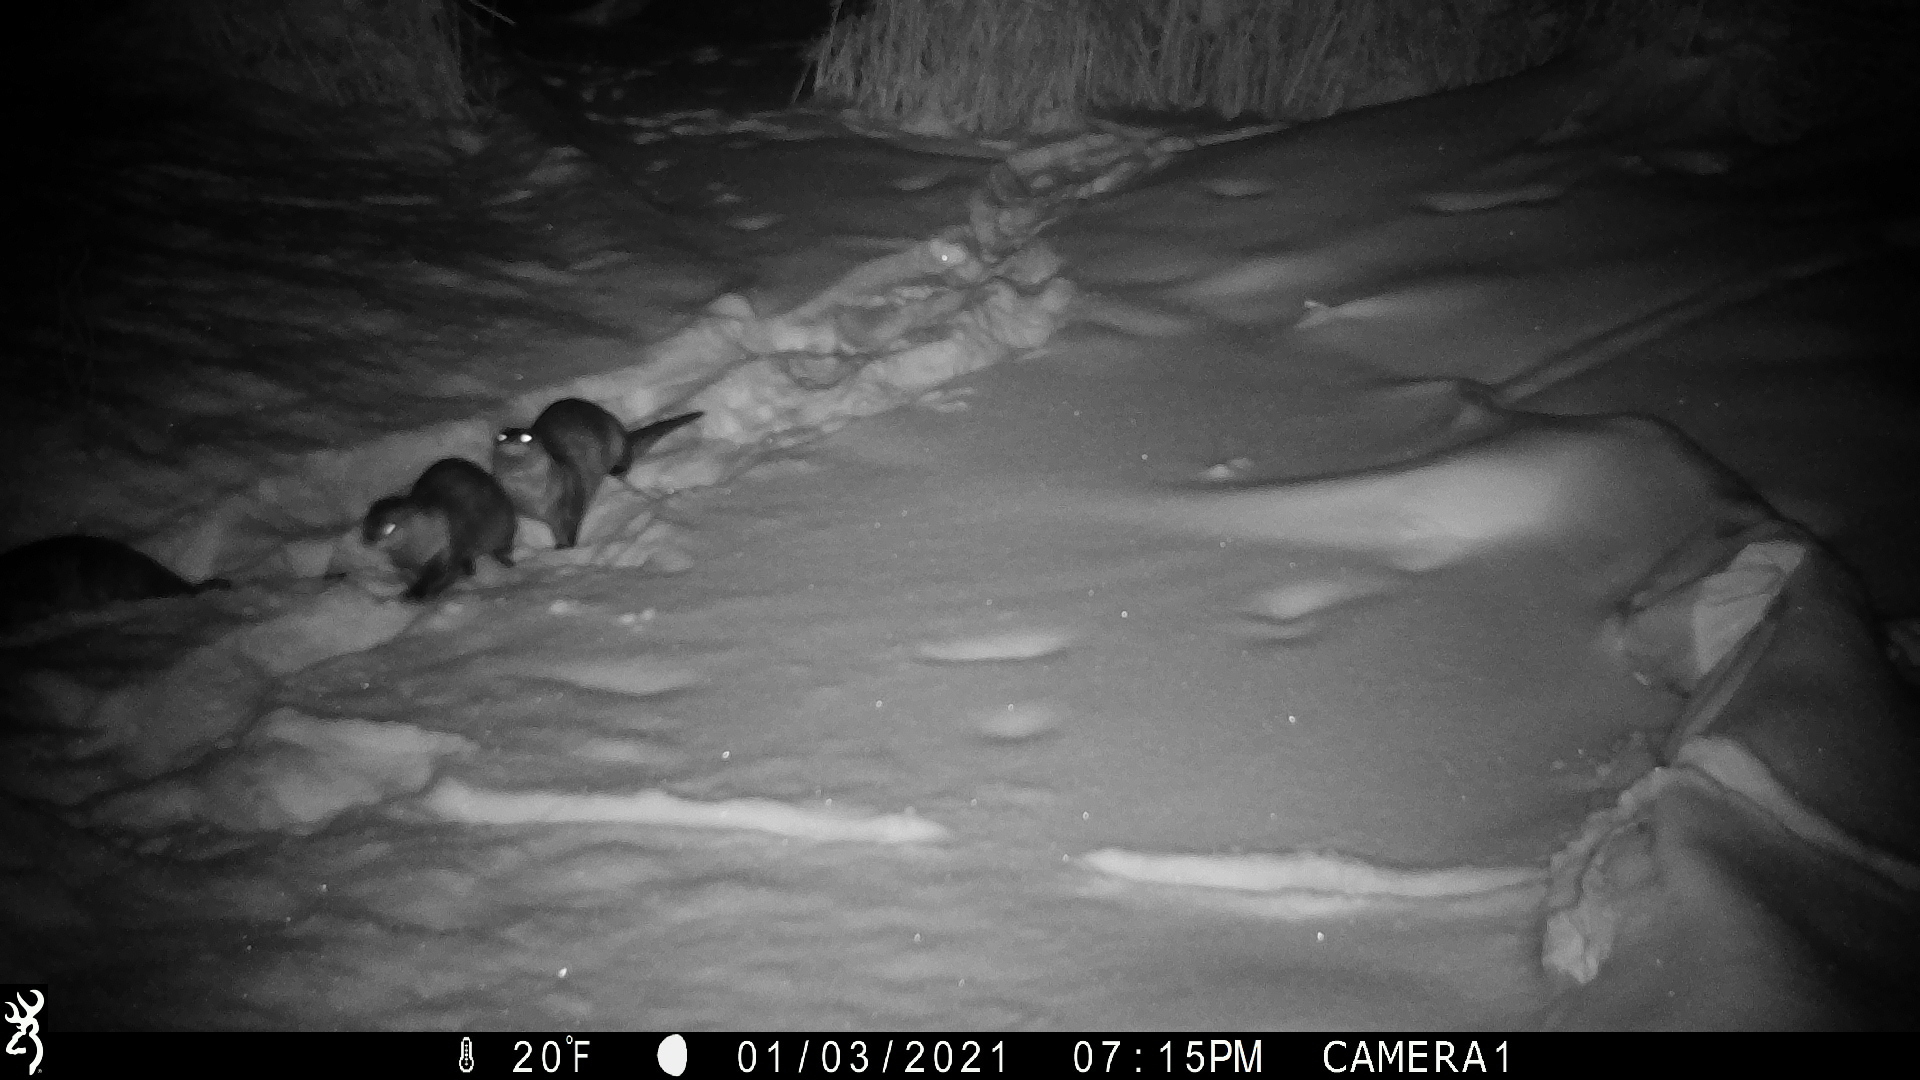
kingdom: Animalia
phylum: Chordata
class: Mammalia
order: Carnivora
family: Mustelidae
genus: Lontra
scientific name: Lontra canadensis
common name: North american river otter
